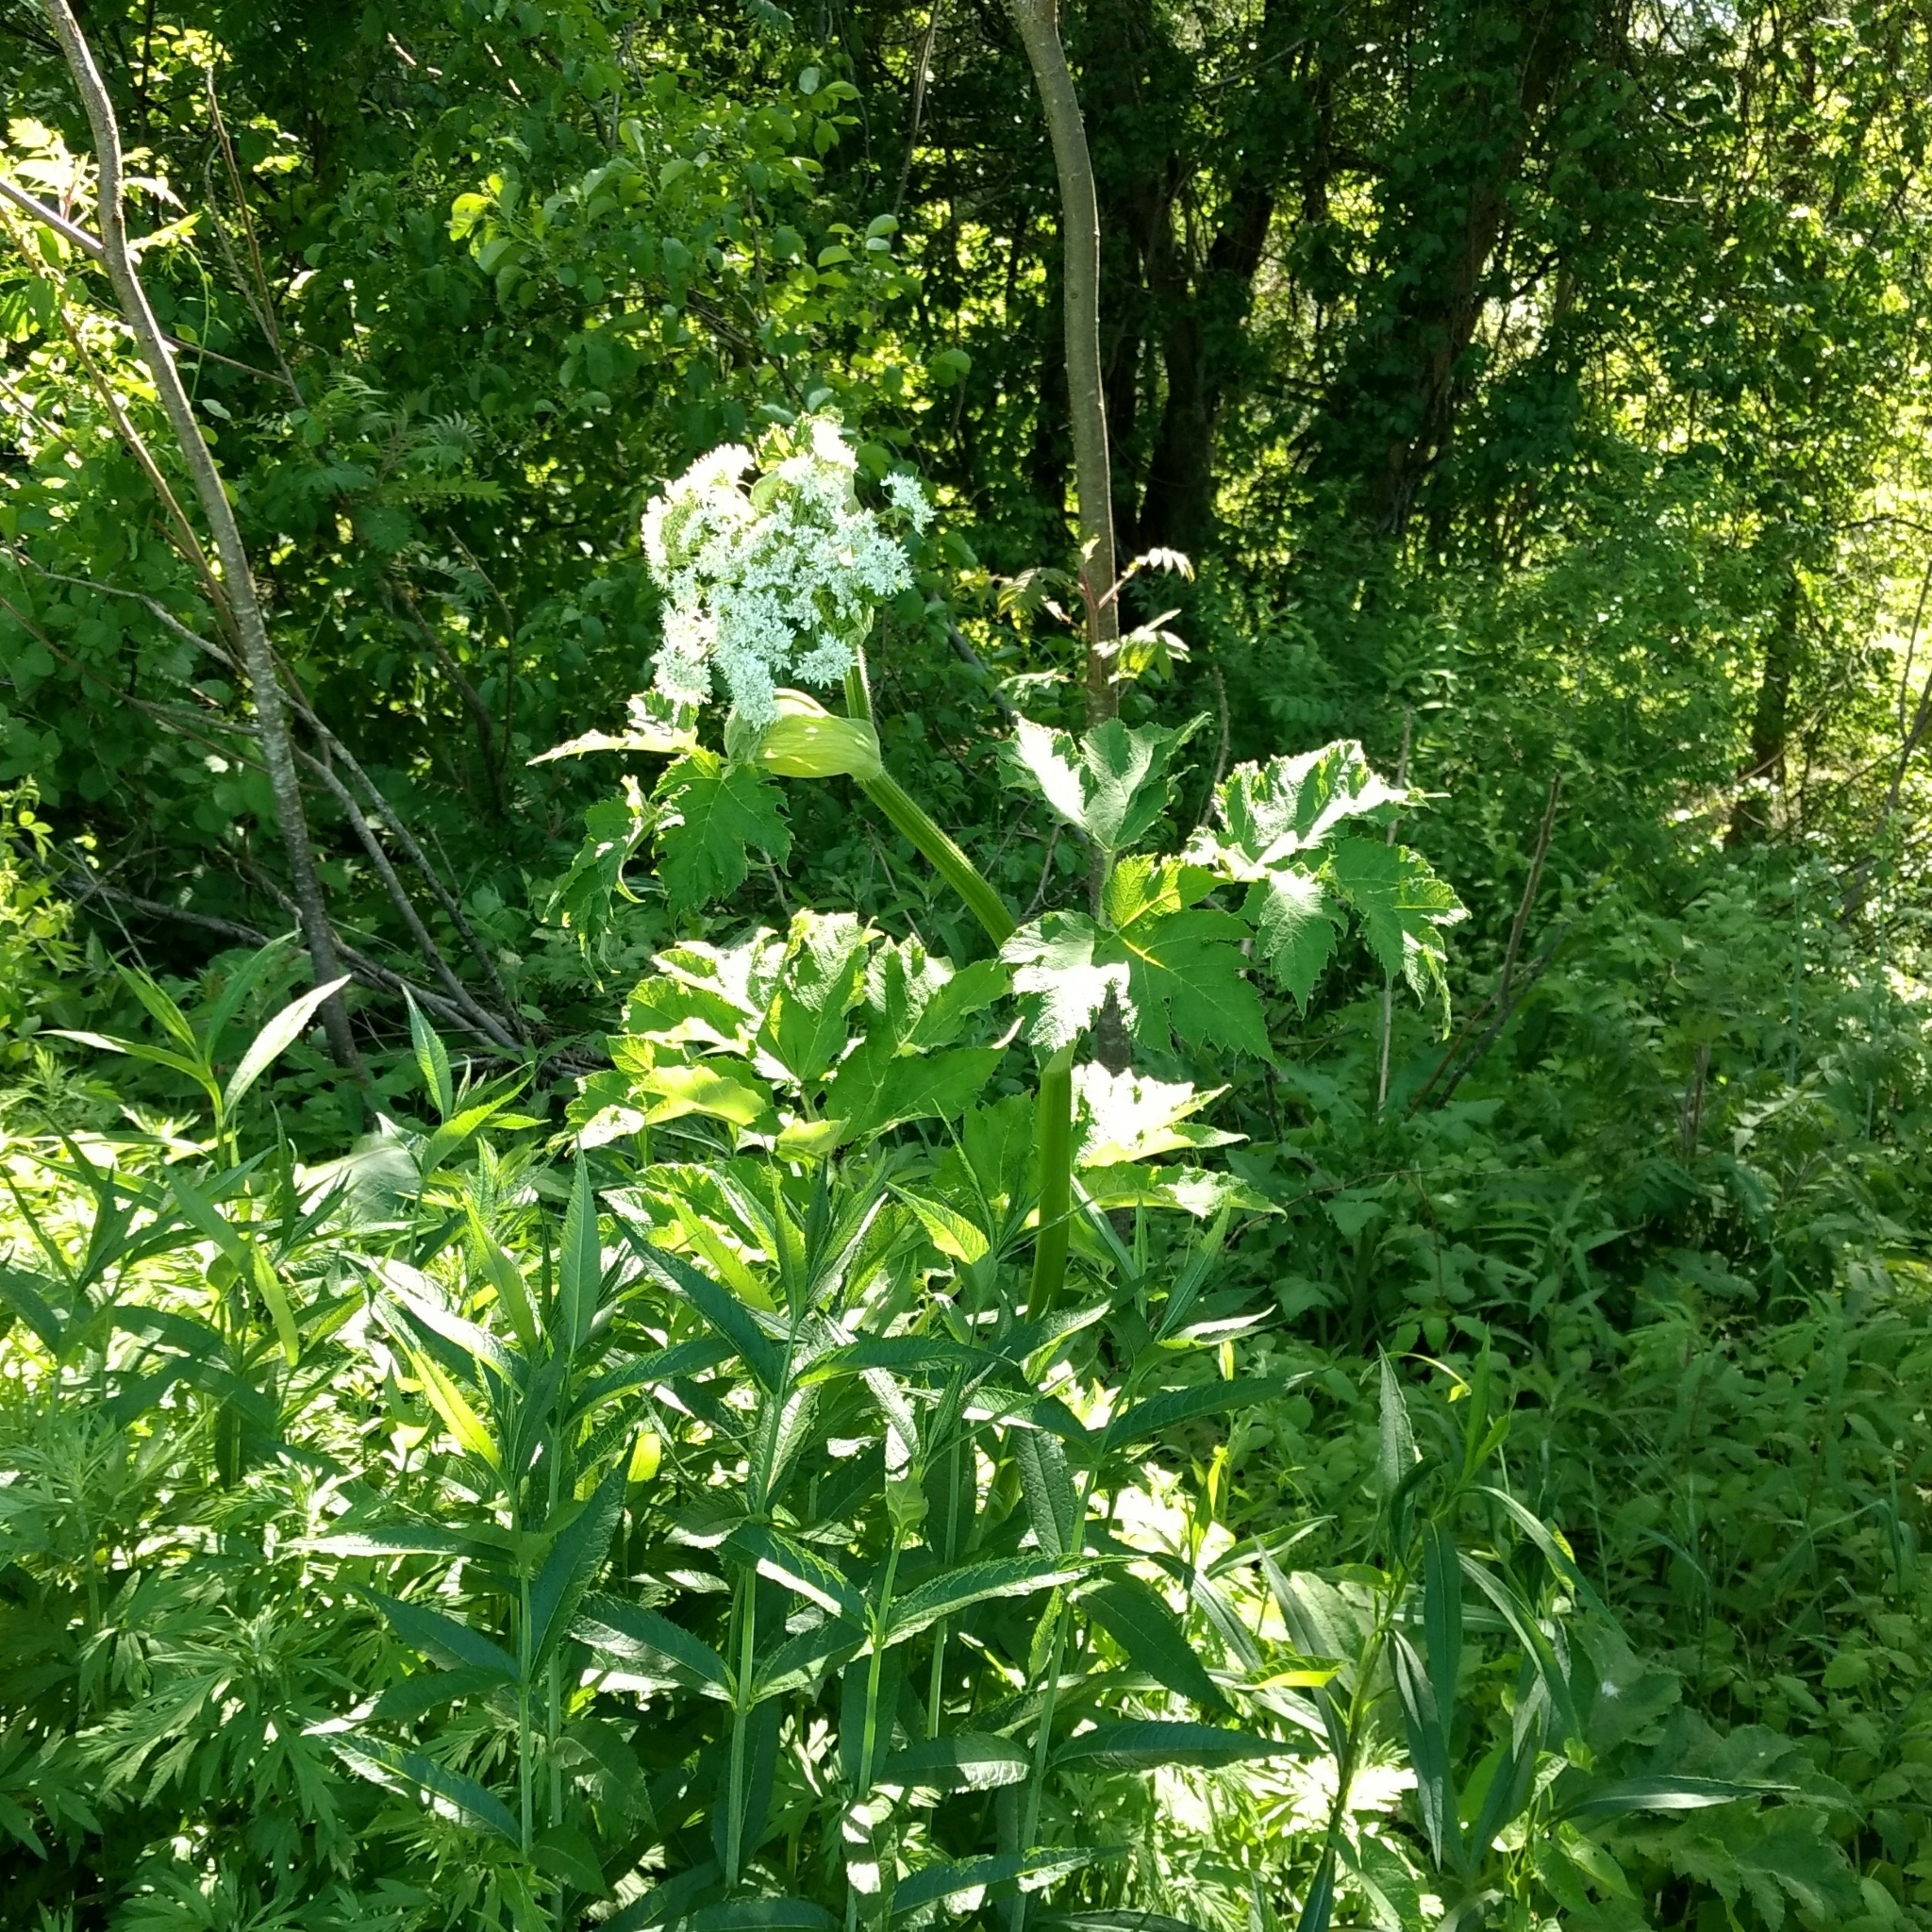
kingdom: Plantae
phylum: Tracheophyta
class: Magnoliopsida
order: Apiales
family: Apiaceae
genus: Heracleum
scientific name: Heracleum maximum
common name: American cow parsnip
